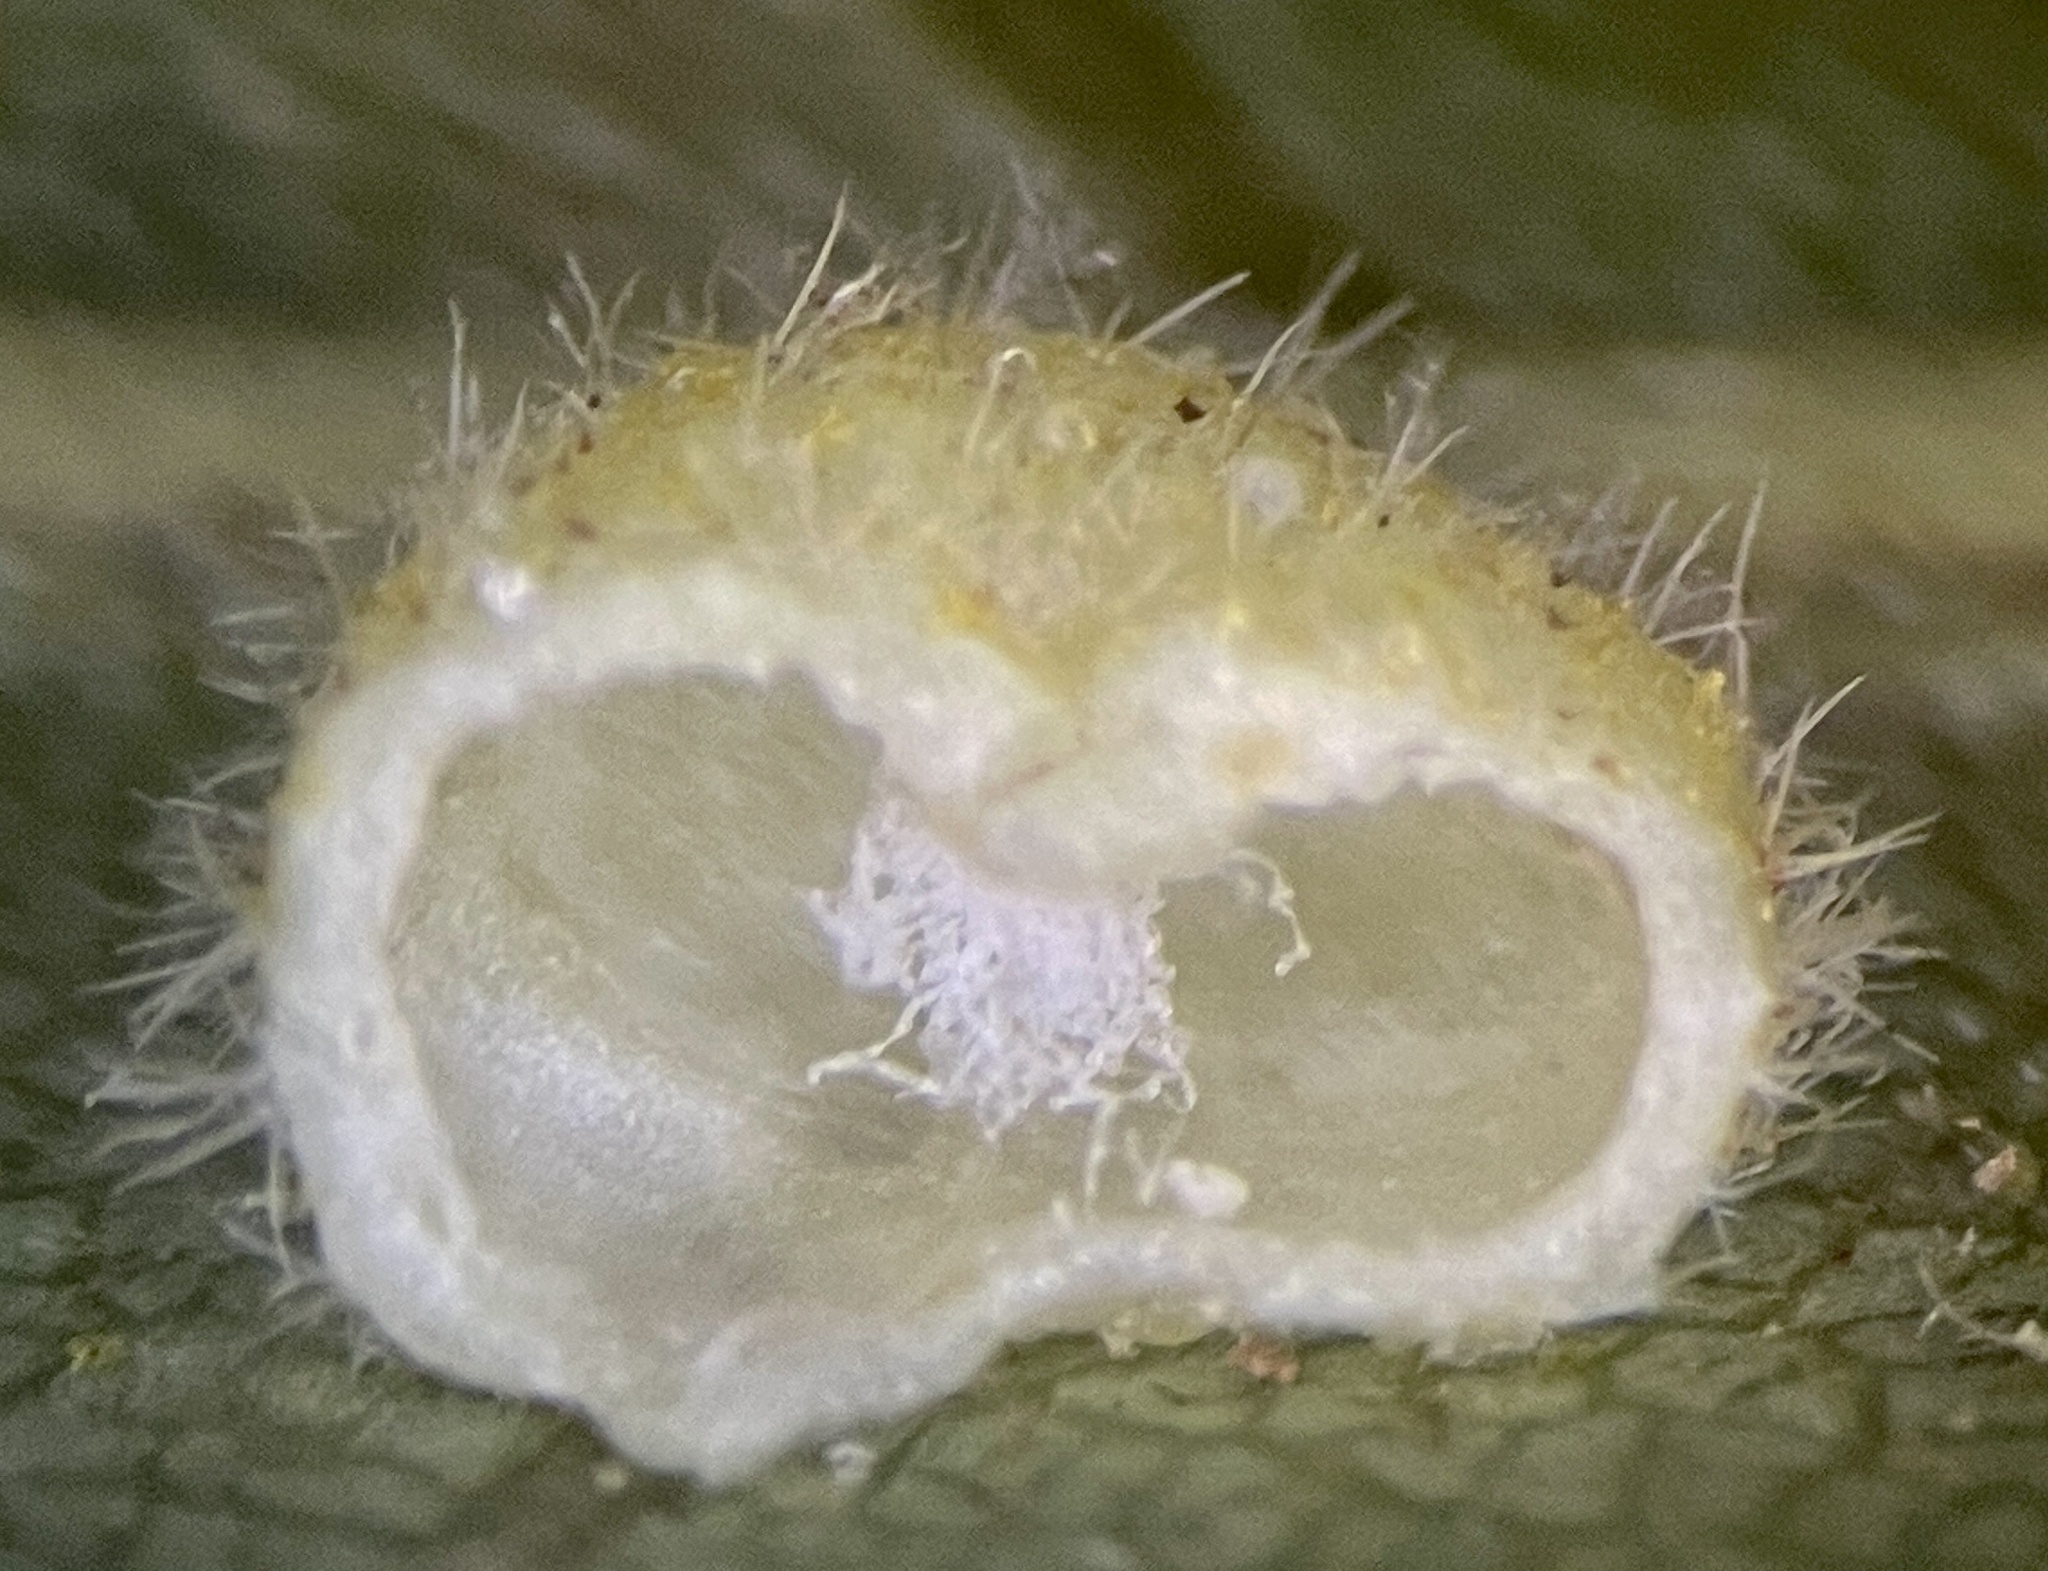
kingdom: Animalia
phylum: Arthropoda
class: Insecta
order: Diptera
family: Cecidomyiidae
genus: Caryomyia
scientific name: Caryomyia thompsoni
